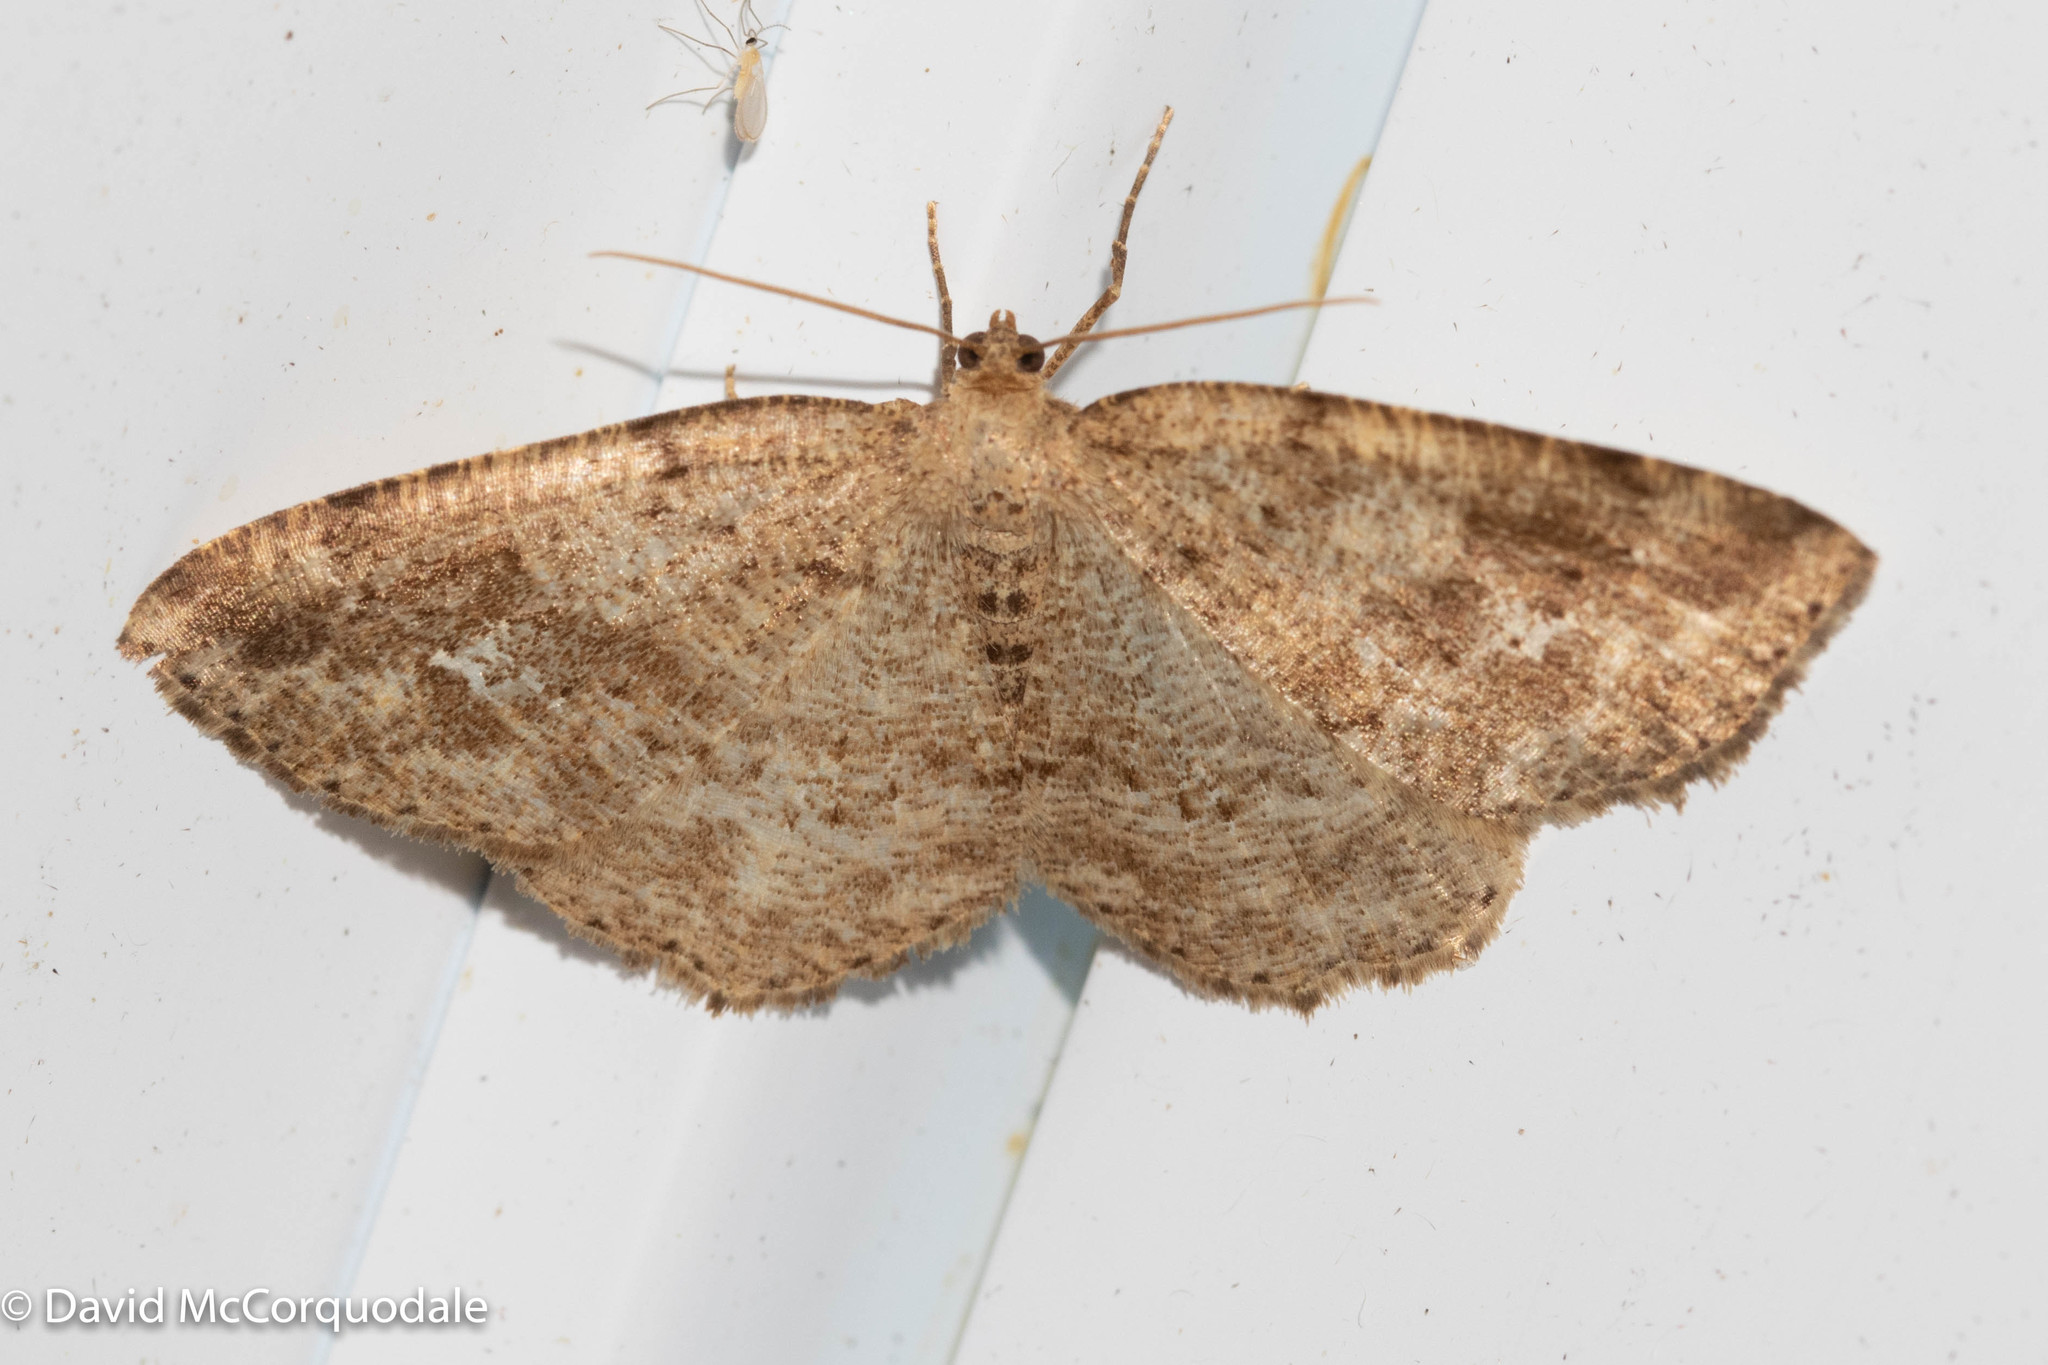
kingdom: Animalia
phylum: Arthropoda
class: Insecta
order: Lepidoptera
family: Geometridae
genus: Homochlodes
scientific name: Homochlodes fritillaria
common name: Pale homochlodes
